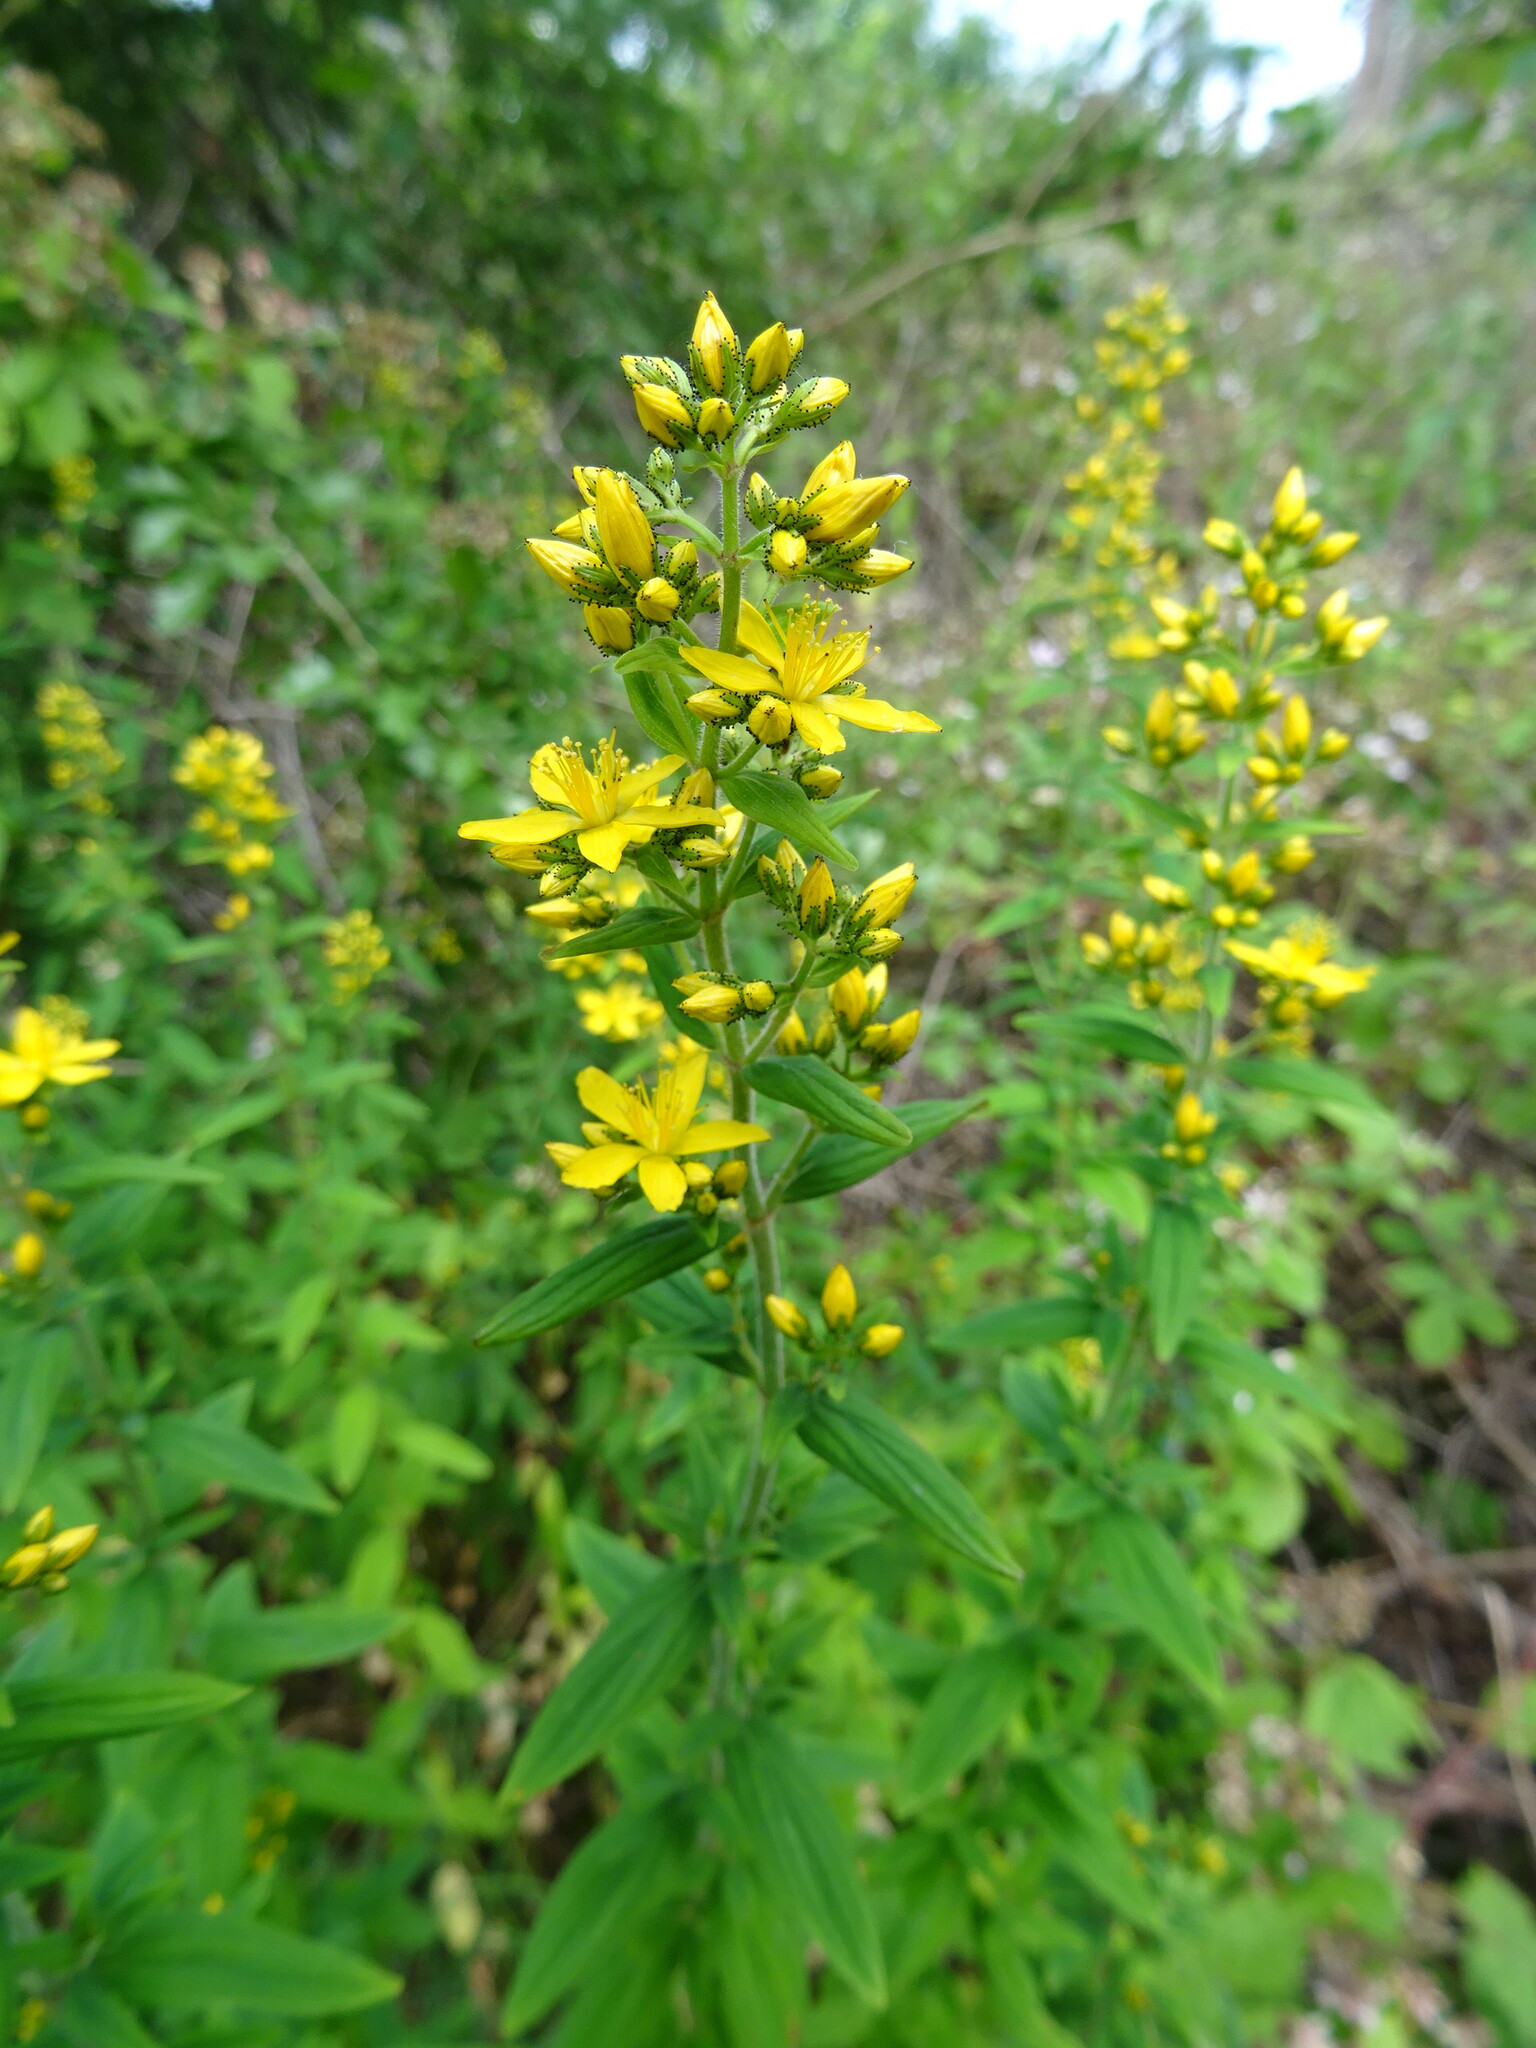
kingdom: Plantae
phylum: Tracheophyta
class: Magnoliopsida
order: Malpighiales
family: Hypericaceae
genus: Hypericum
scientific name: Hypericum hirsutum
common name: Hairy st. john's-wort
